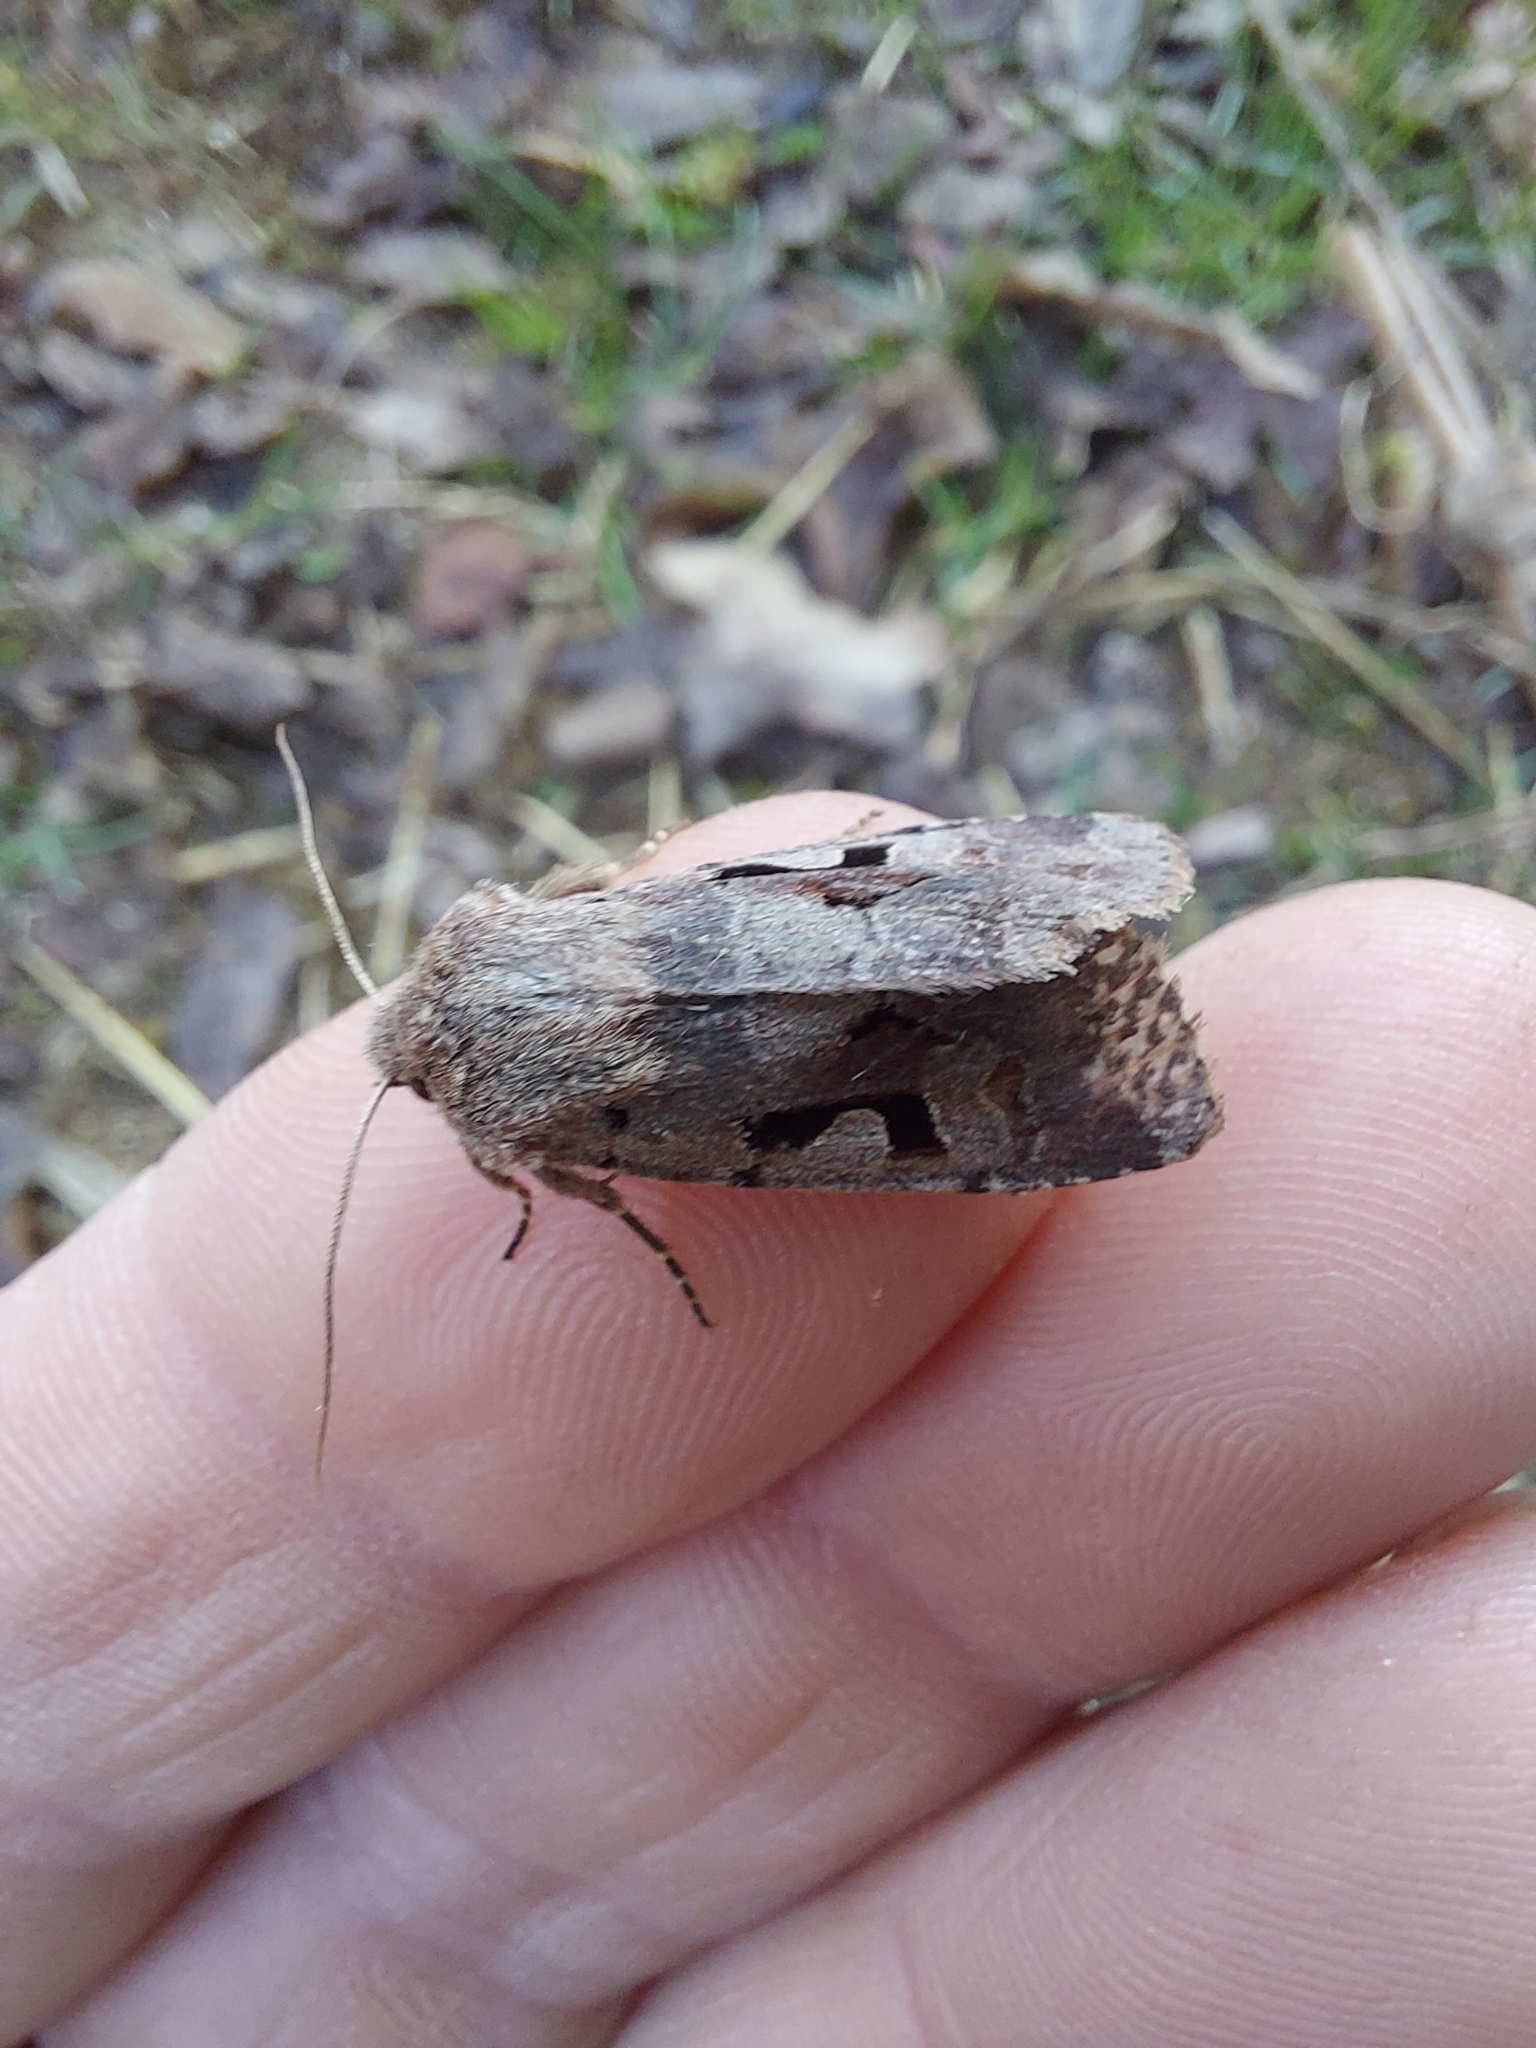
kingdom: Animalia
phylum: Arthropoda
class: Insecta
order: Lepidoptera
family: Noctuidae
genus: Orthosia
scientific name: Orthosia gothica
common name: Hebrew character
